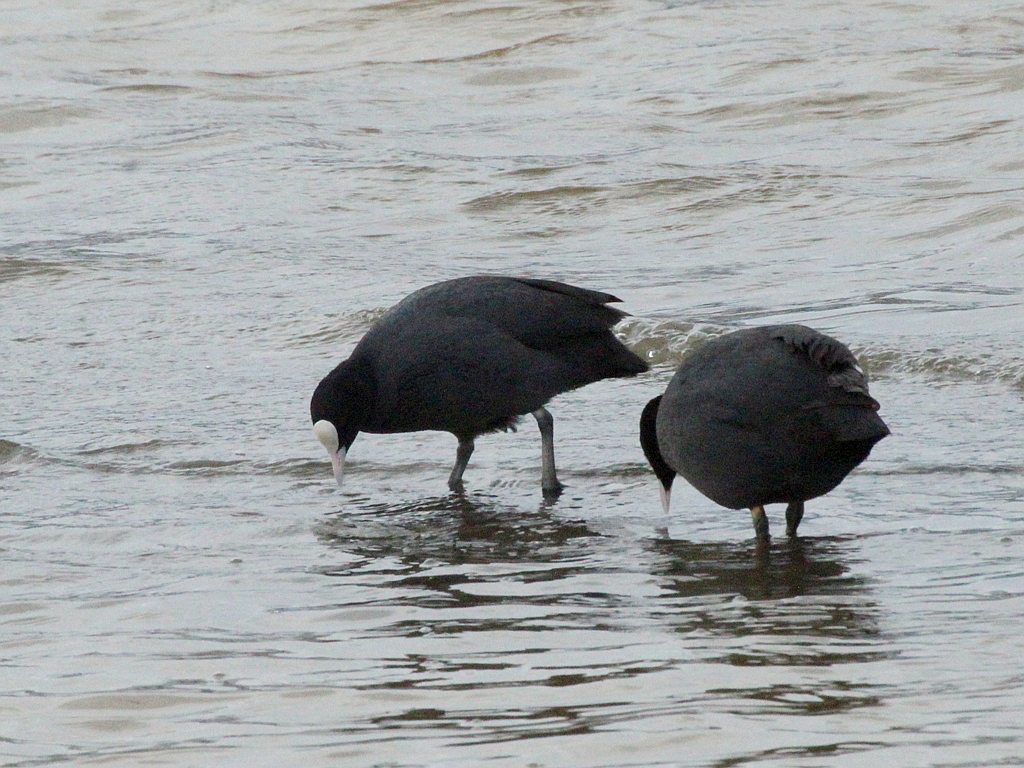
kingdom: Animalia
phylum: Chordata
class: Aves
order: Gruiformes
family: Rallidae
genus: Fulica
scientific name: Fulica atra
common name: Eurasian coot
